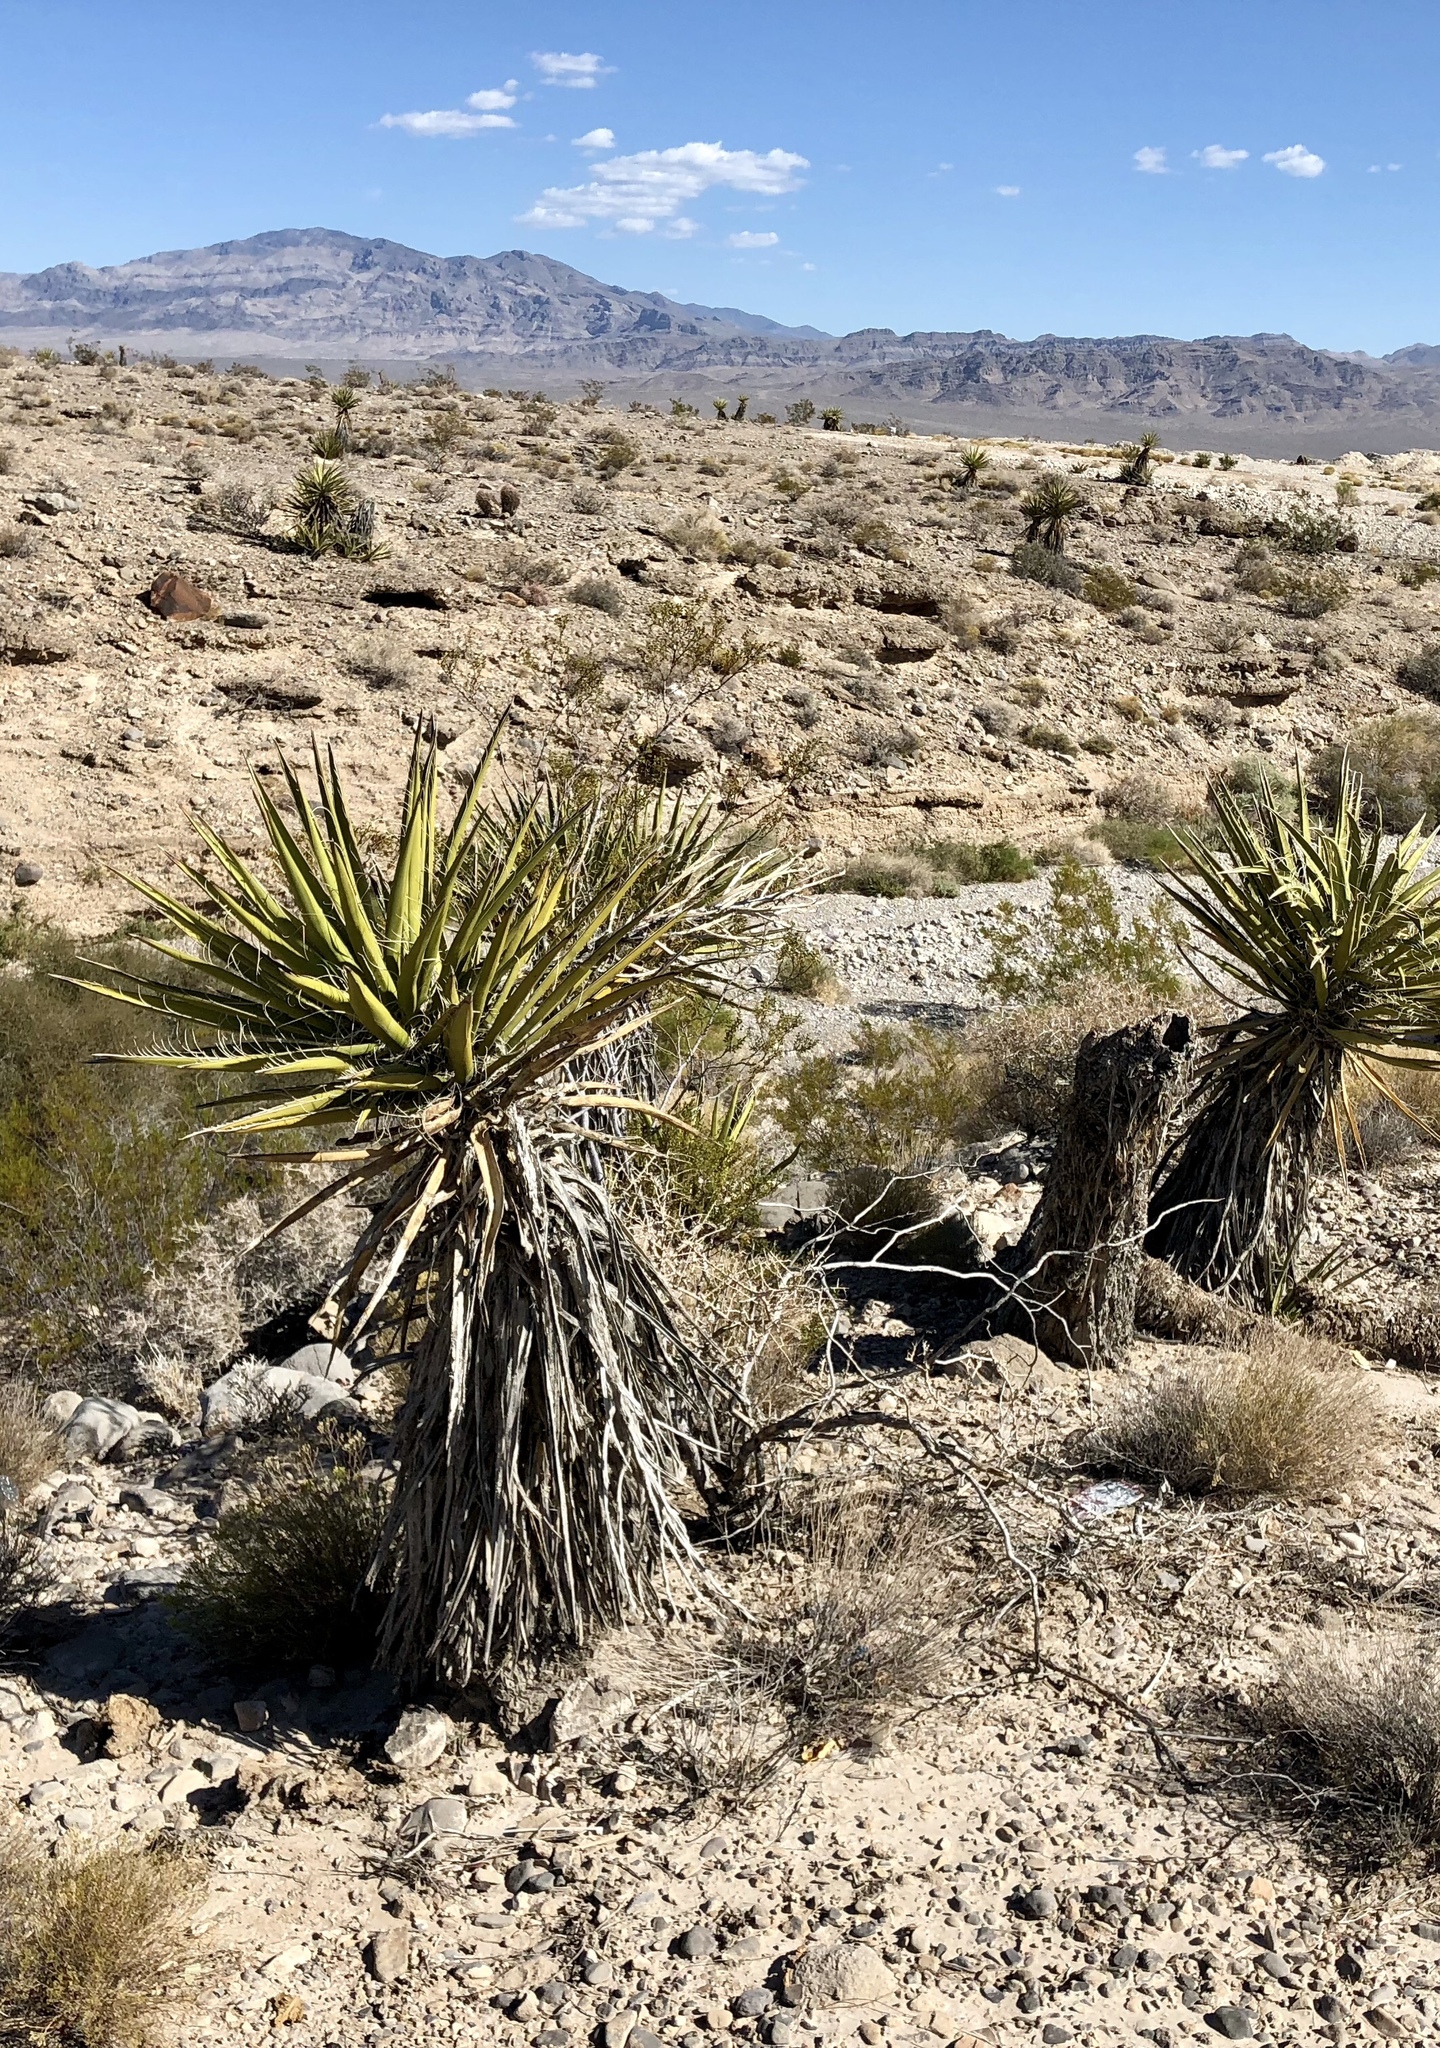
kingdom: Plantae
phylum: Tracheophyta
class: Liliopsida
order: Asparagales
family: Asparagaceae
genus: Yucca
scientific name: Yucca schidigera
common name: Mojave yucca
